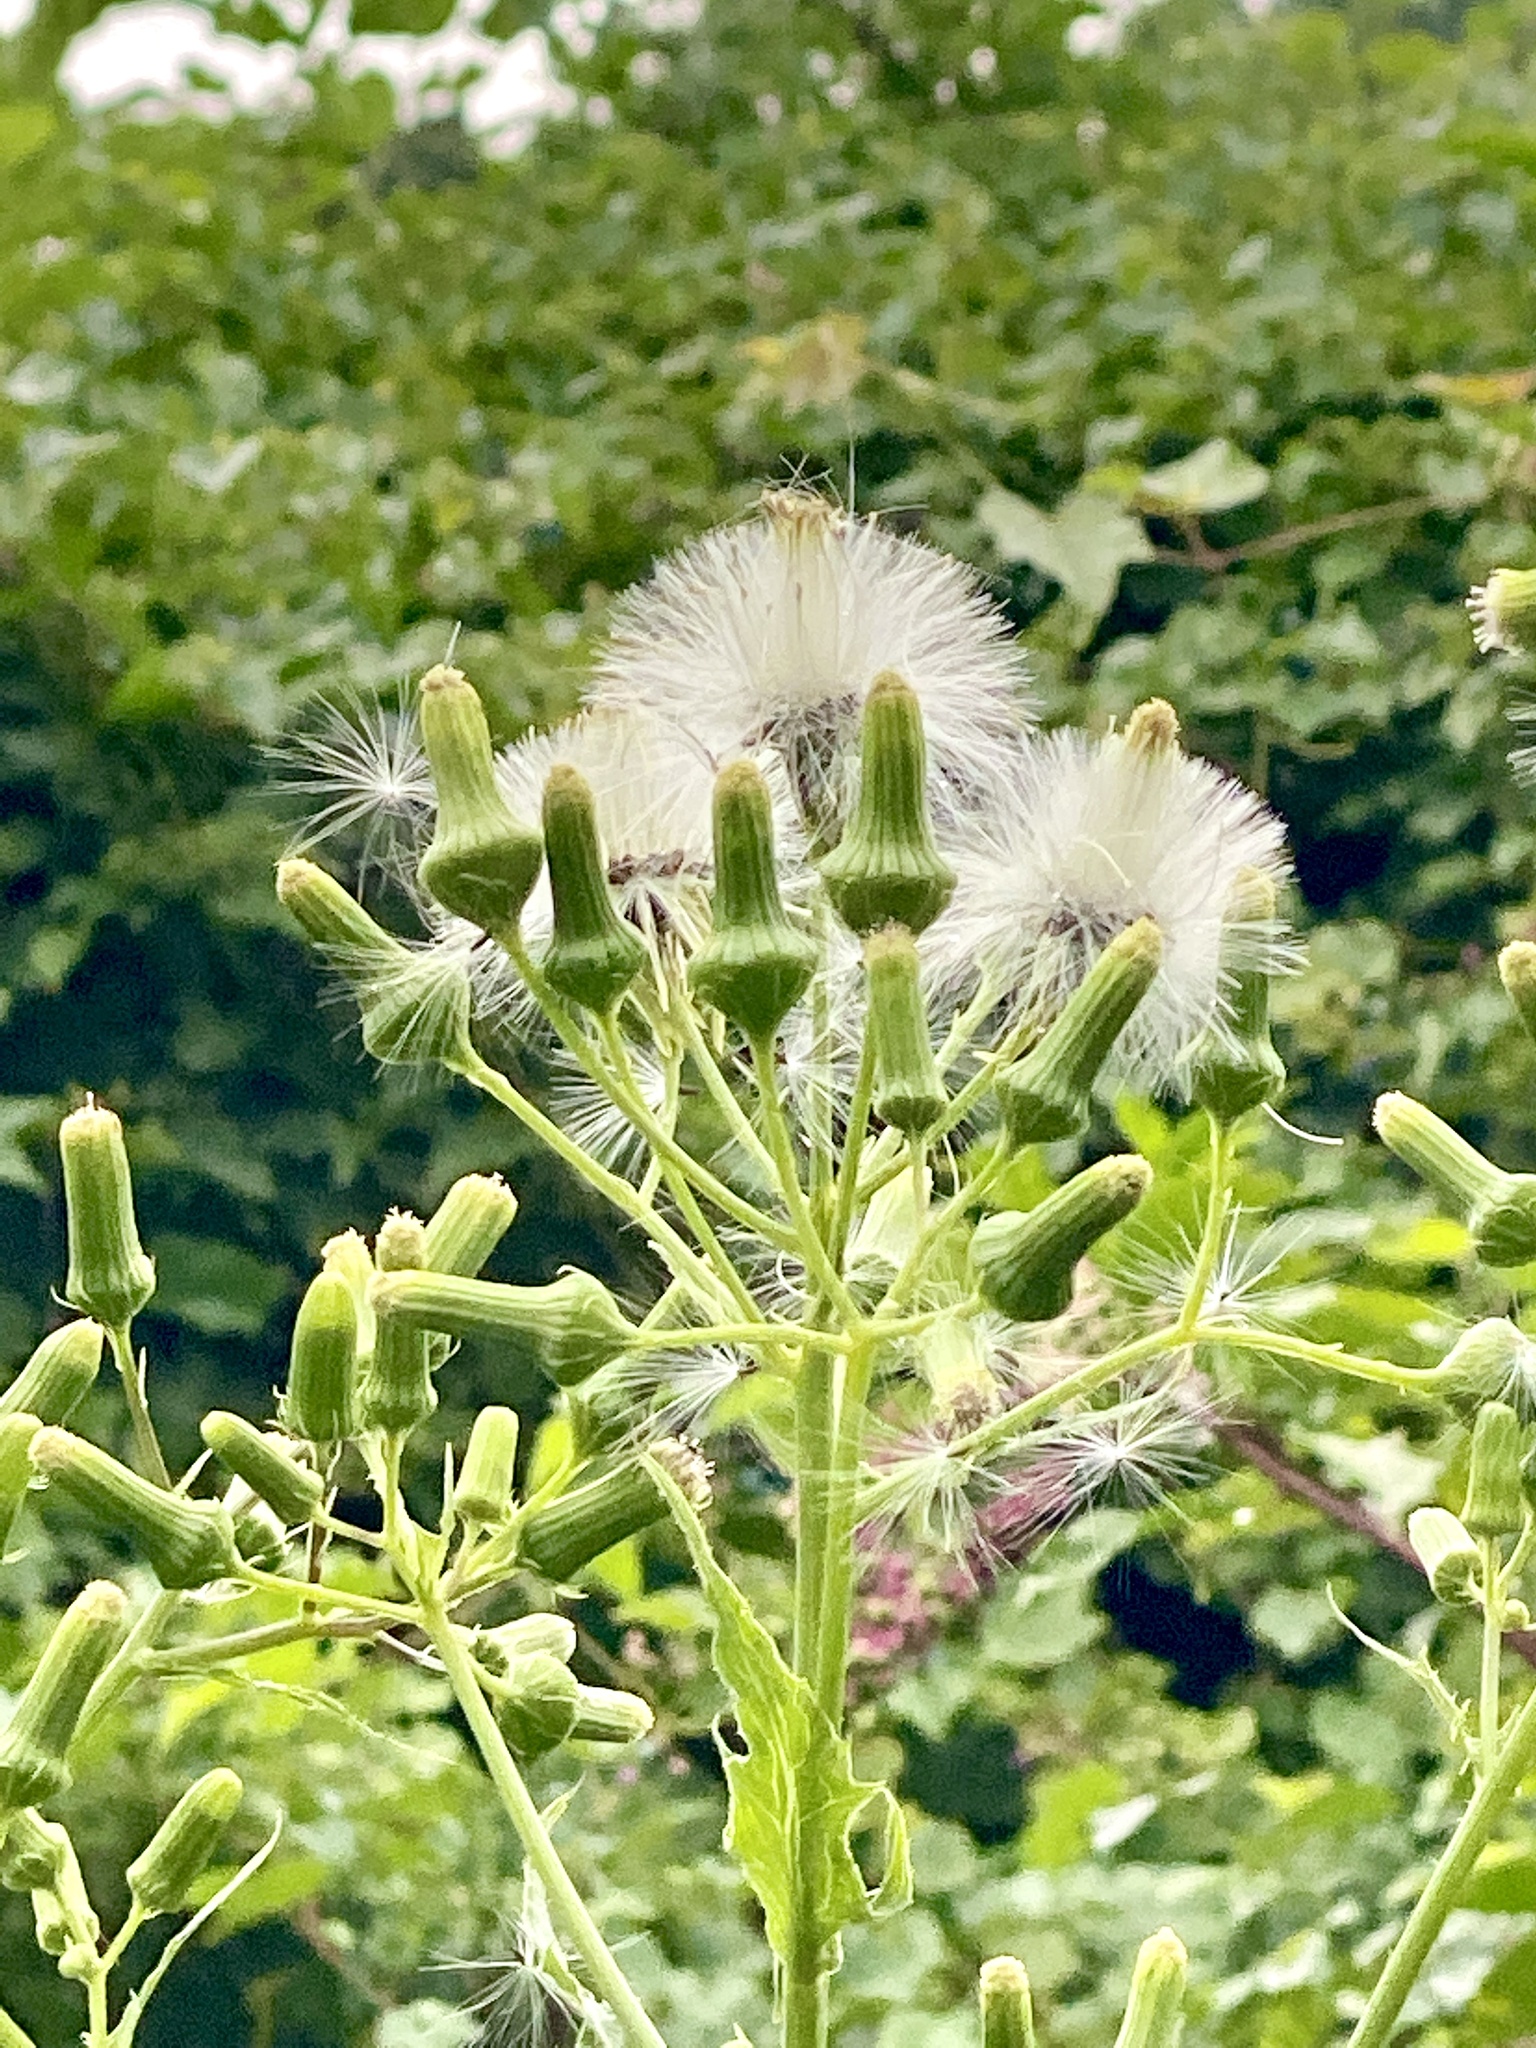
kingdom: Plantae
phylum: Tracheophyta
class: Magnoliopsida
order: Asterales
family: Asteraceae
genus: Erechtites
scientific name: Erechtites hieraciifolius
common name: American burnweed
